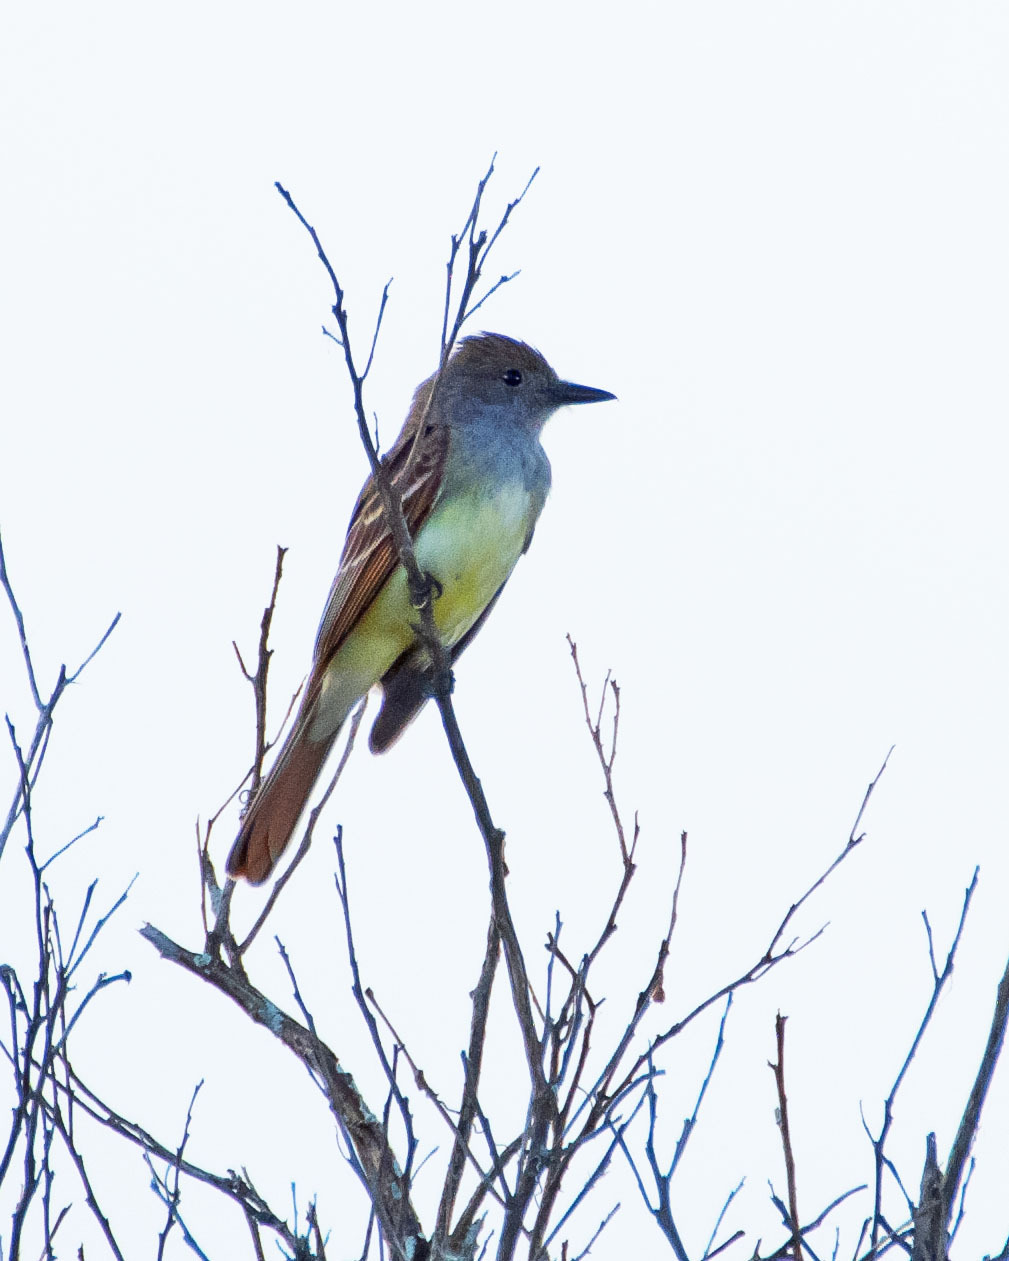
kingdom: Animalia
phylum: Chordata
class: Aves
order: Passeriformes
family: Tyrannidae
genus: Myiarchus
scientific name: Myiarchus crinitus
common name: Great crested flycatcher
